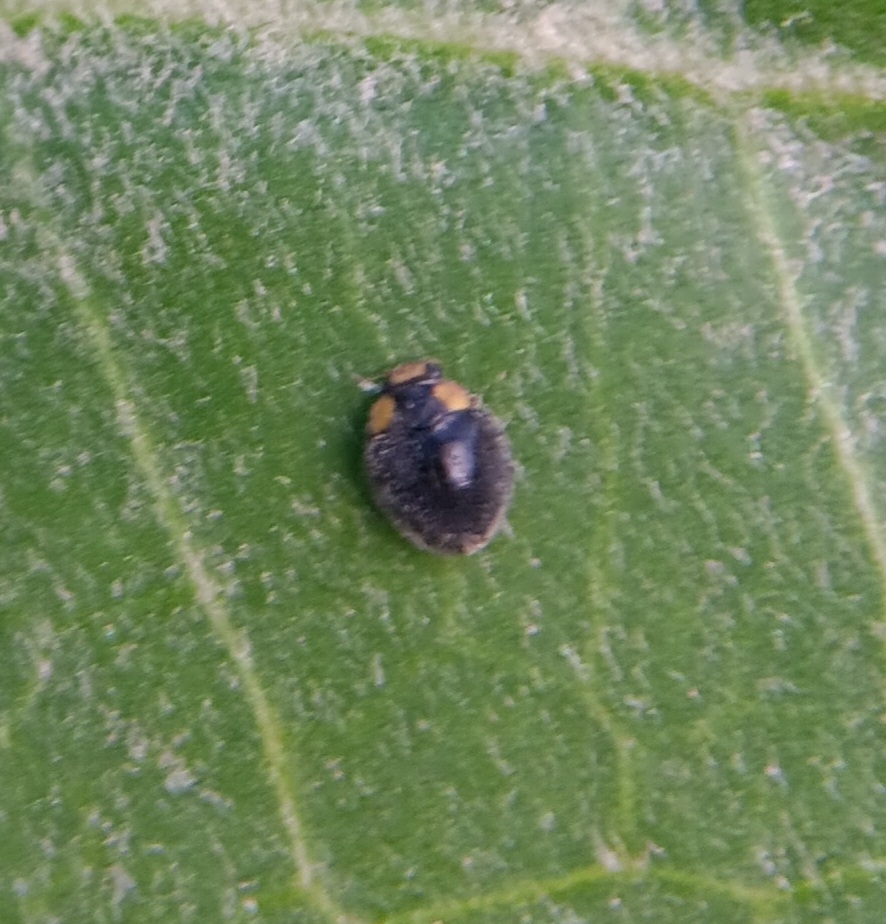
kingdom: Animalia
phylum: Arthropoda
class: Insecta
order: Coleoptera
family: Coccinellidae
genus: Scymnodes
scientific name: Scymnodes lividigaster
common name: Yellowshouldered lady beetle
